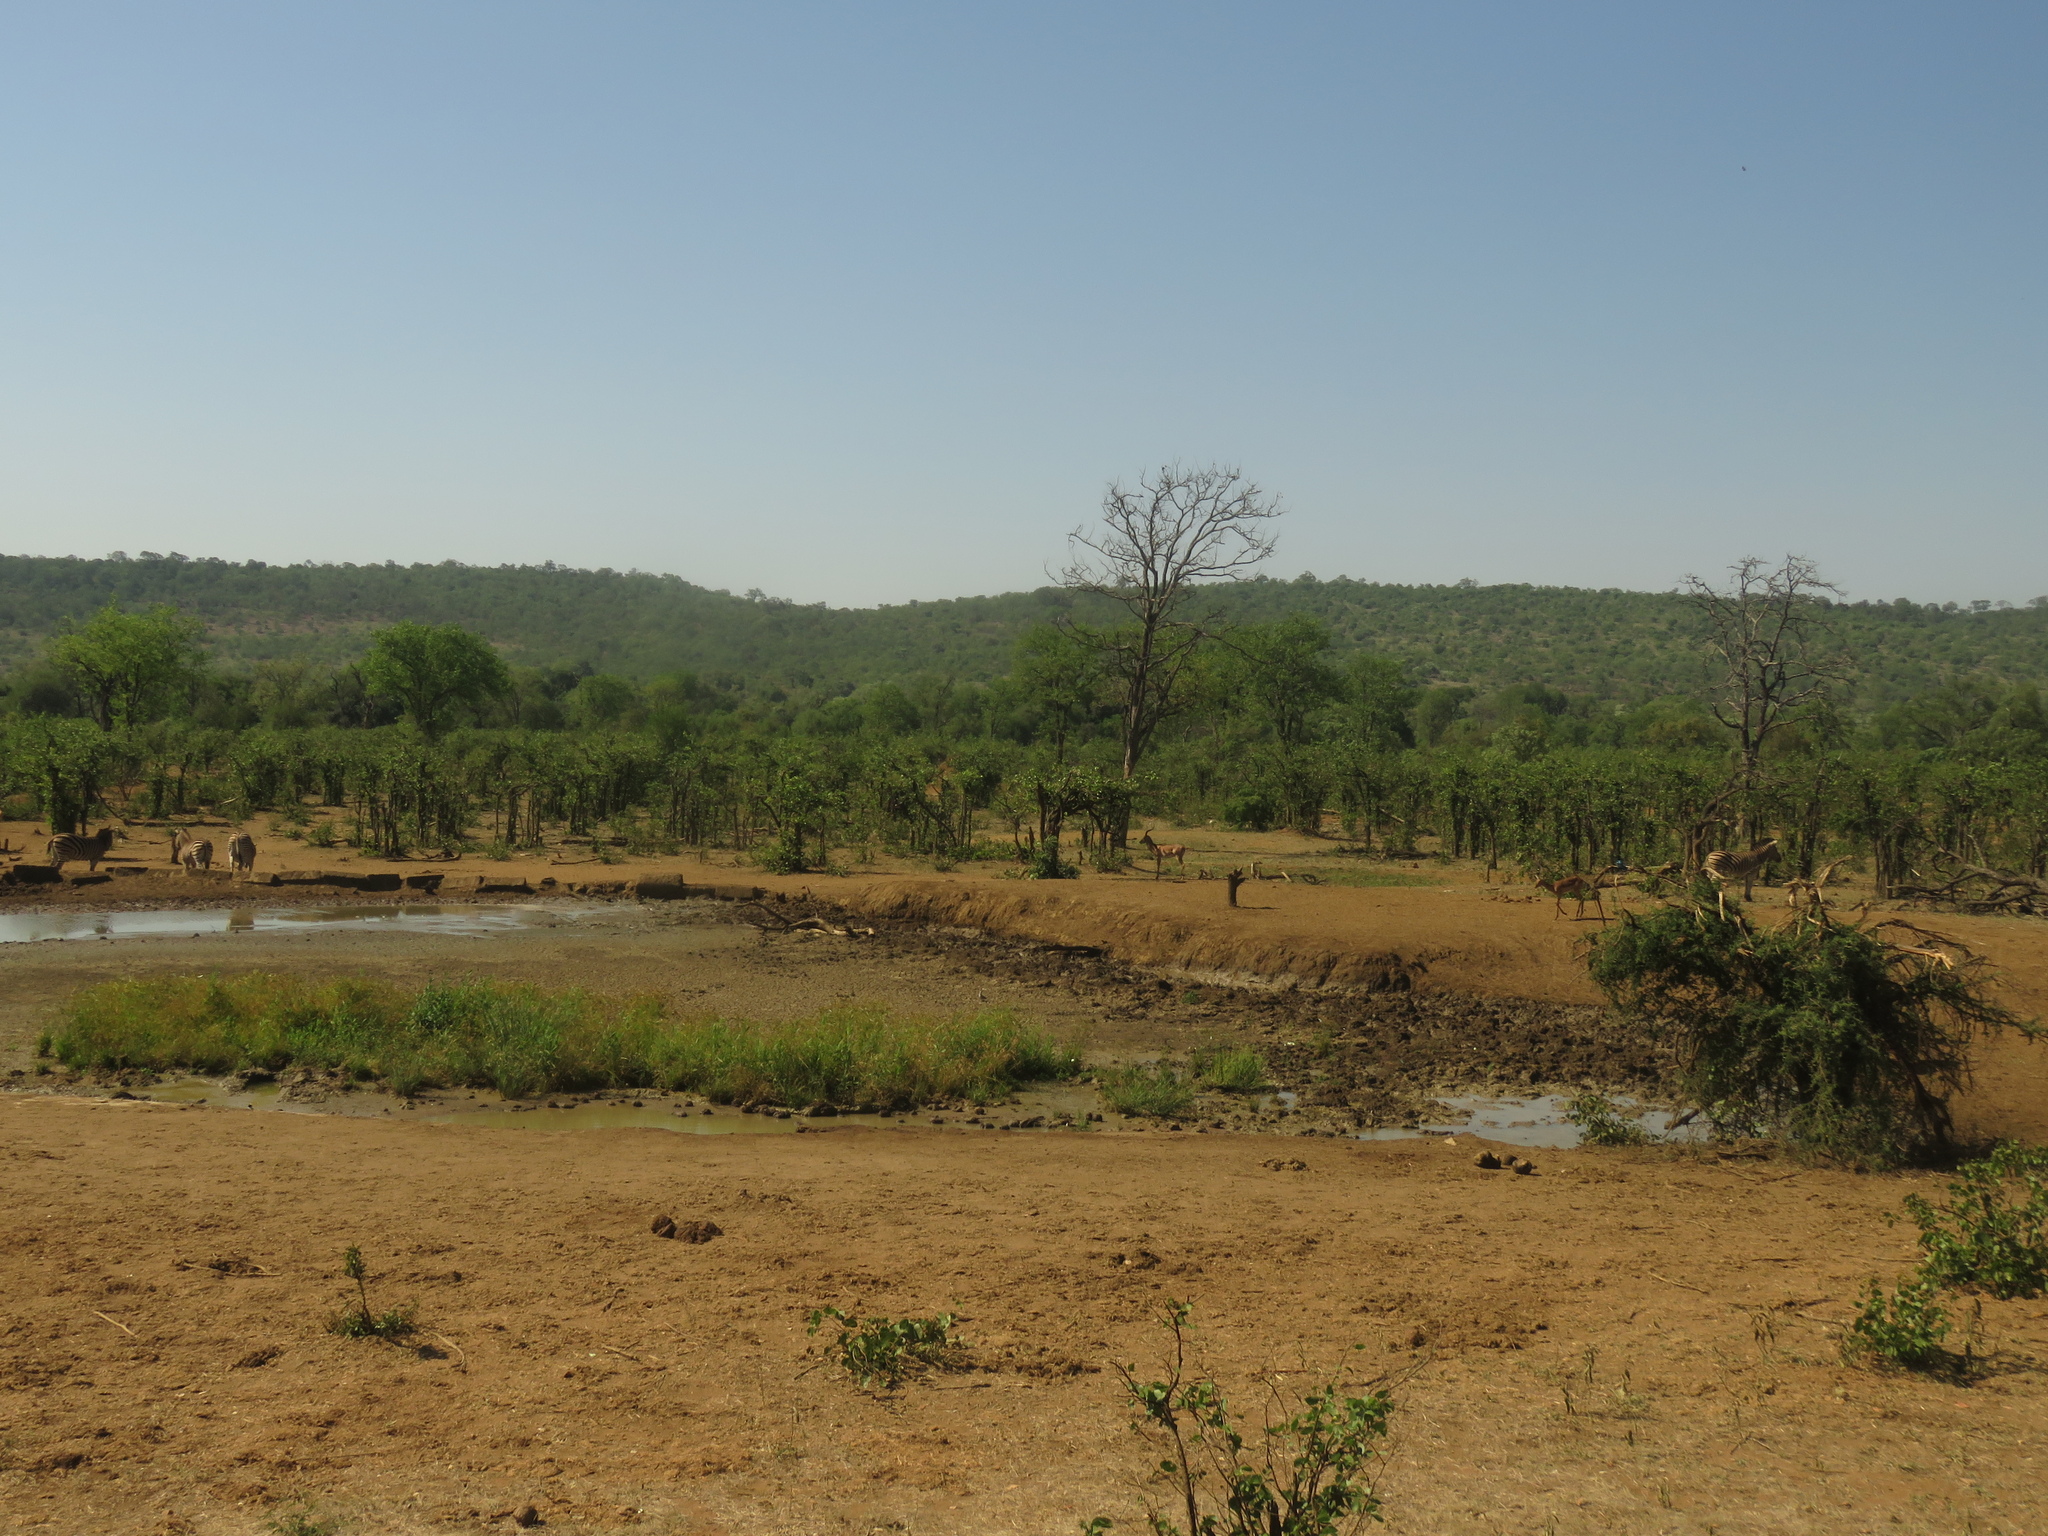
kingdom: Animalia
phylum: Chordata
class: Mammalia
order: Artiodactyla
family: Bovidae
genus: Aepyceros
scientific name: Aepyceros melampus
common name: Impala
